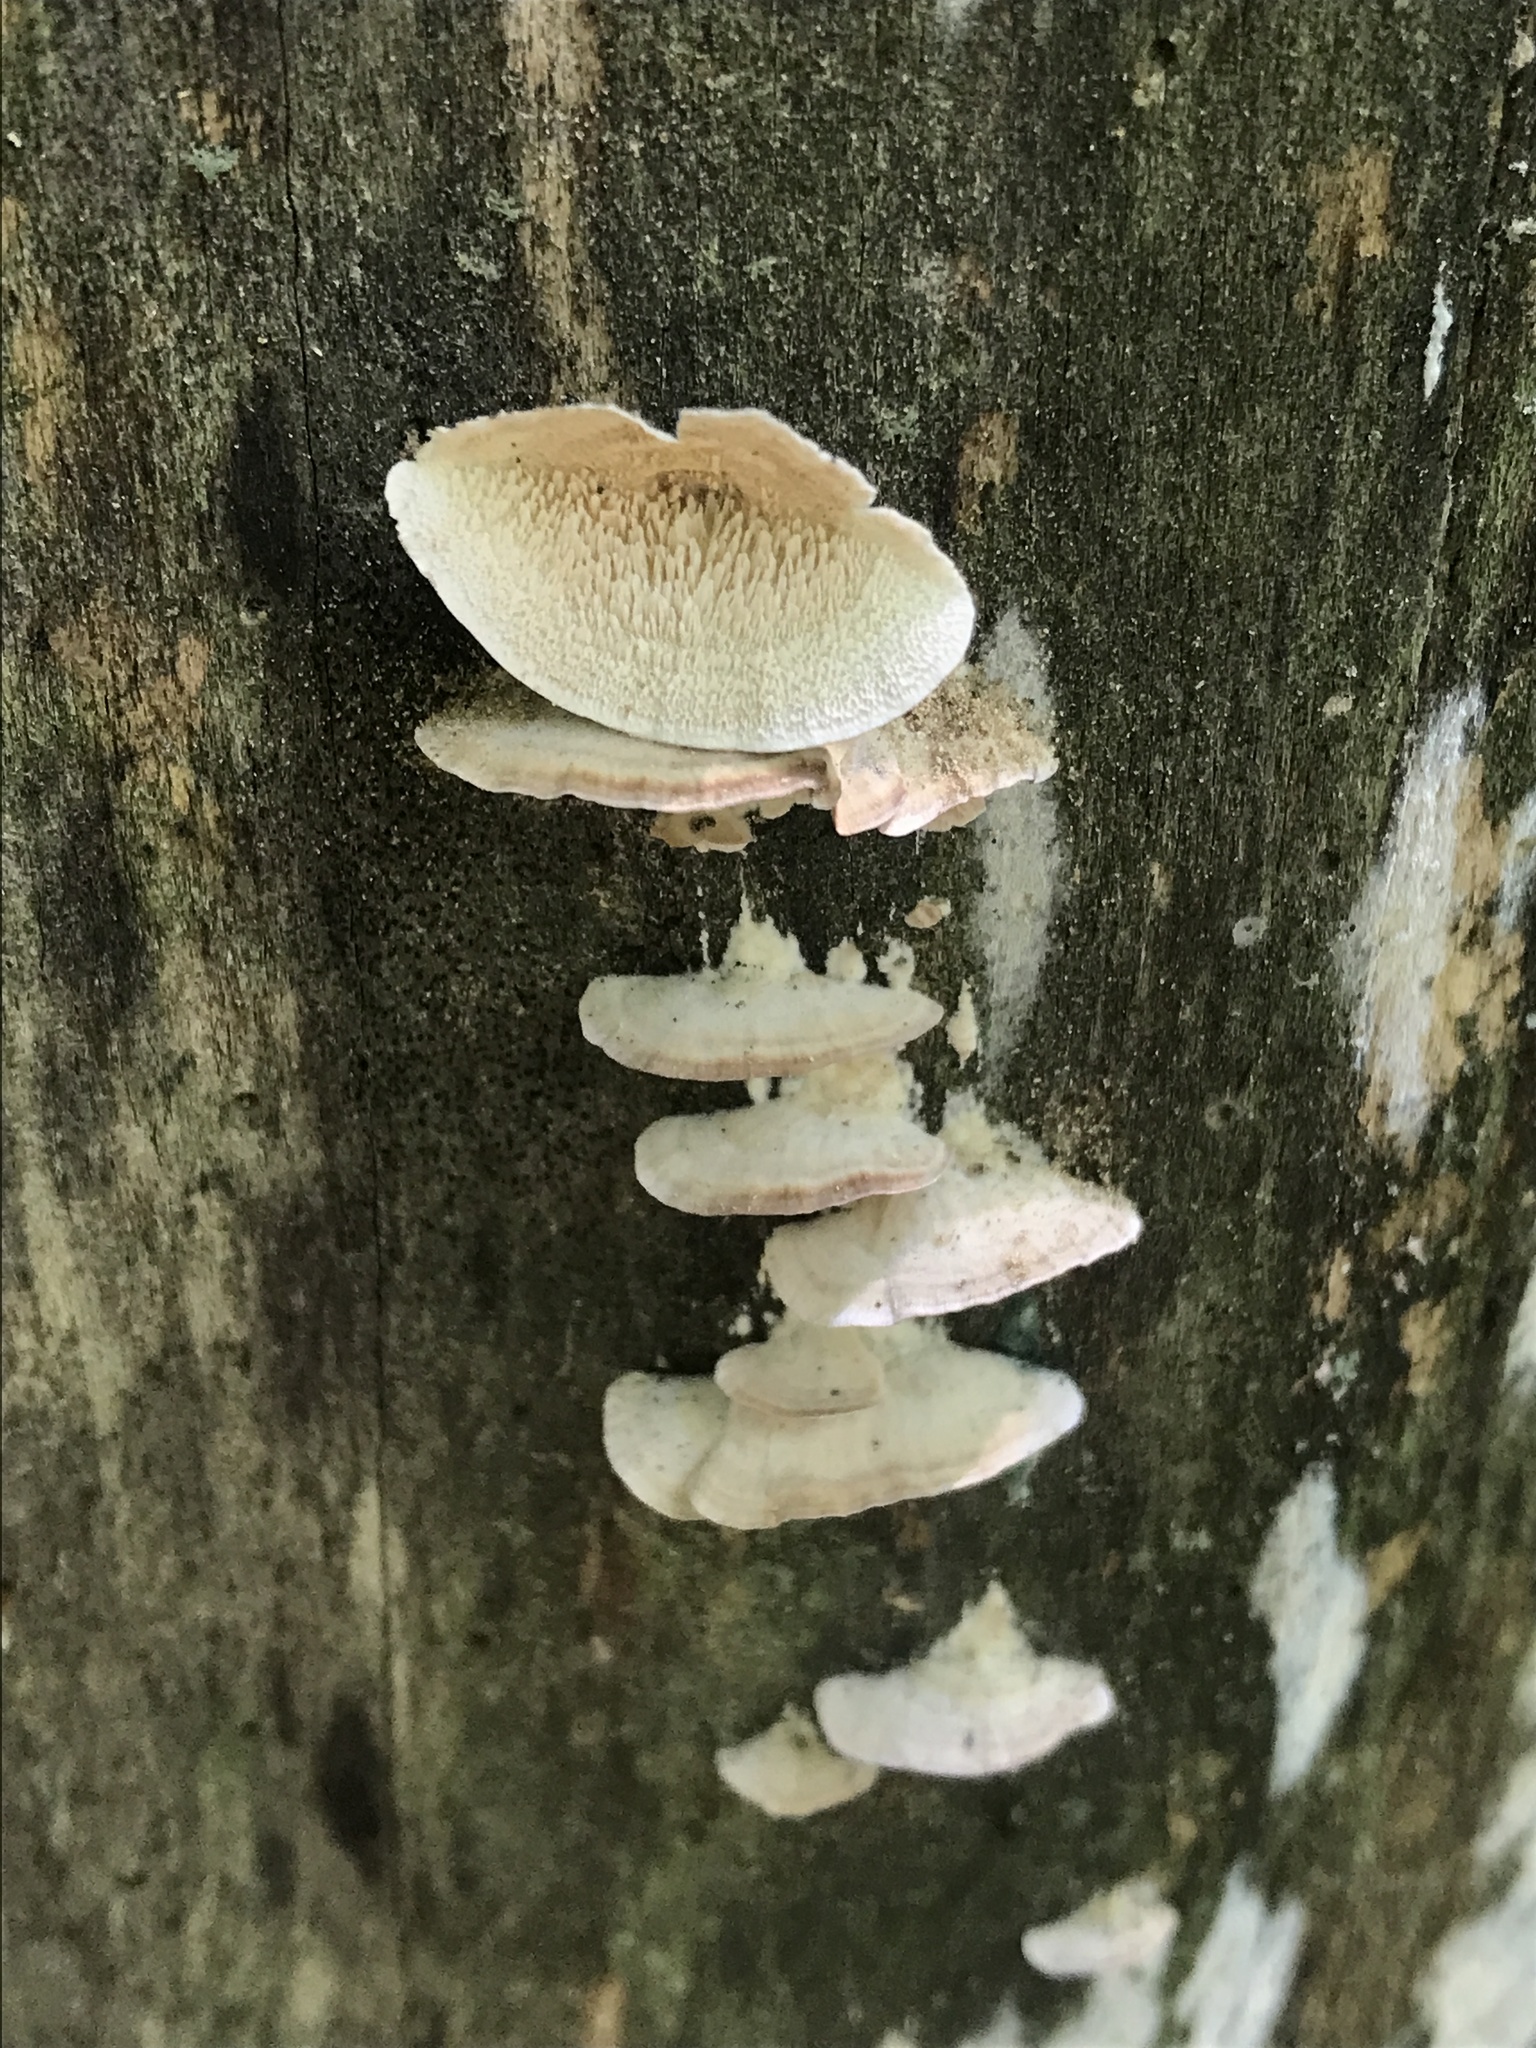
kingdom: Fungi
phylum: Basidiomycota
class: Agaricomycetes
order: Hymenochaetales
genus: Trichaptum
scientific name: Trichaptum biforme
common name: Violet-toothed polypore
